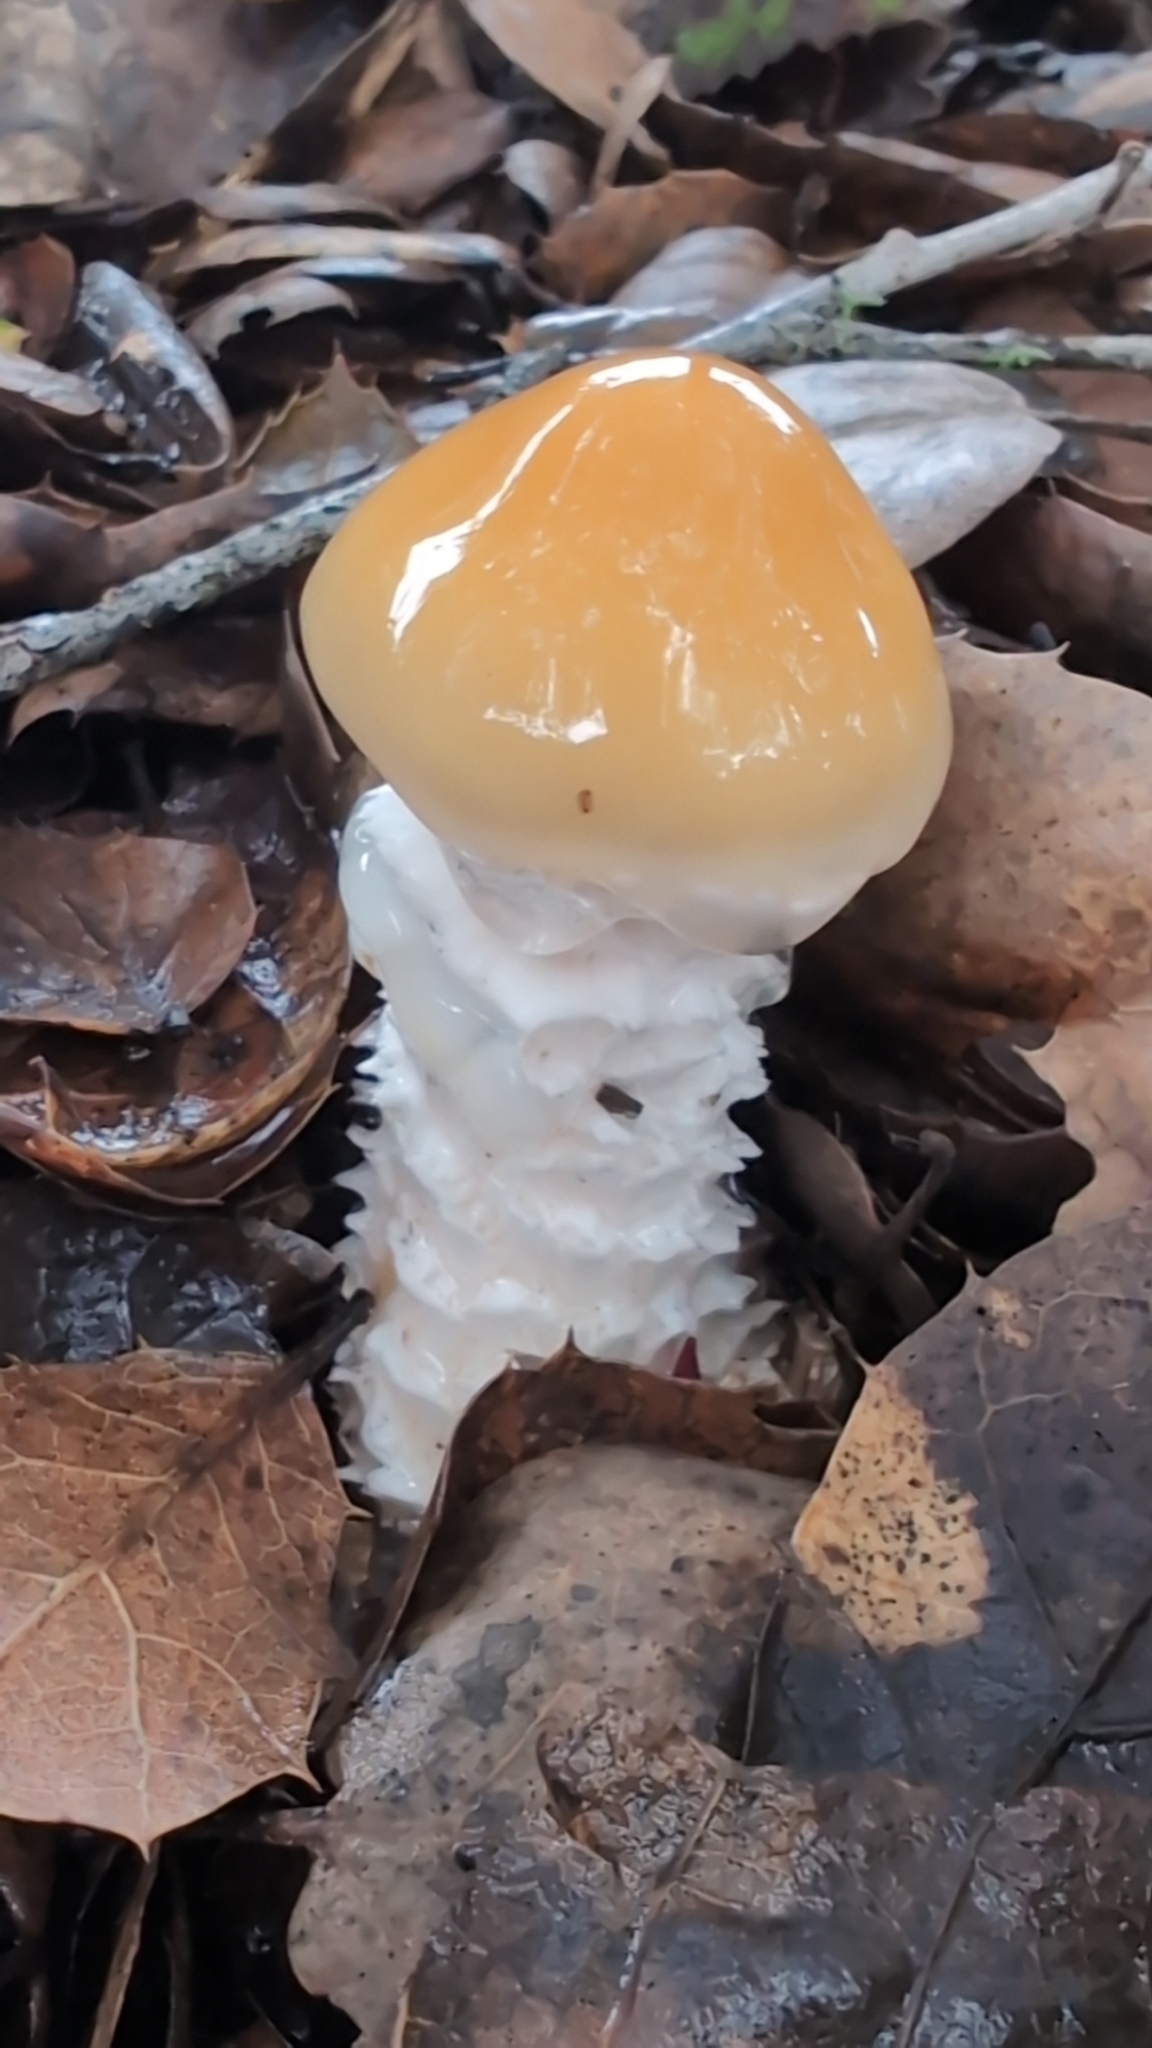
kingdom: Fungi
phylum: Basidiomycota
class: Agaricomycetes
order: Agaricales
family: Strophariaceae
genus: Stropharia
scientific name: Stropharia ambigua
